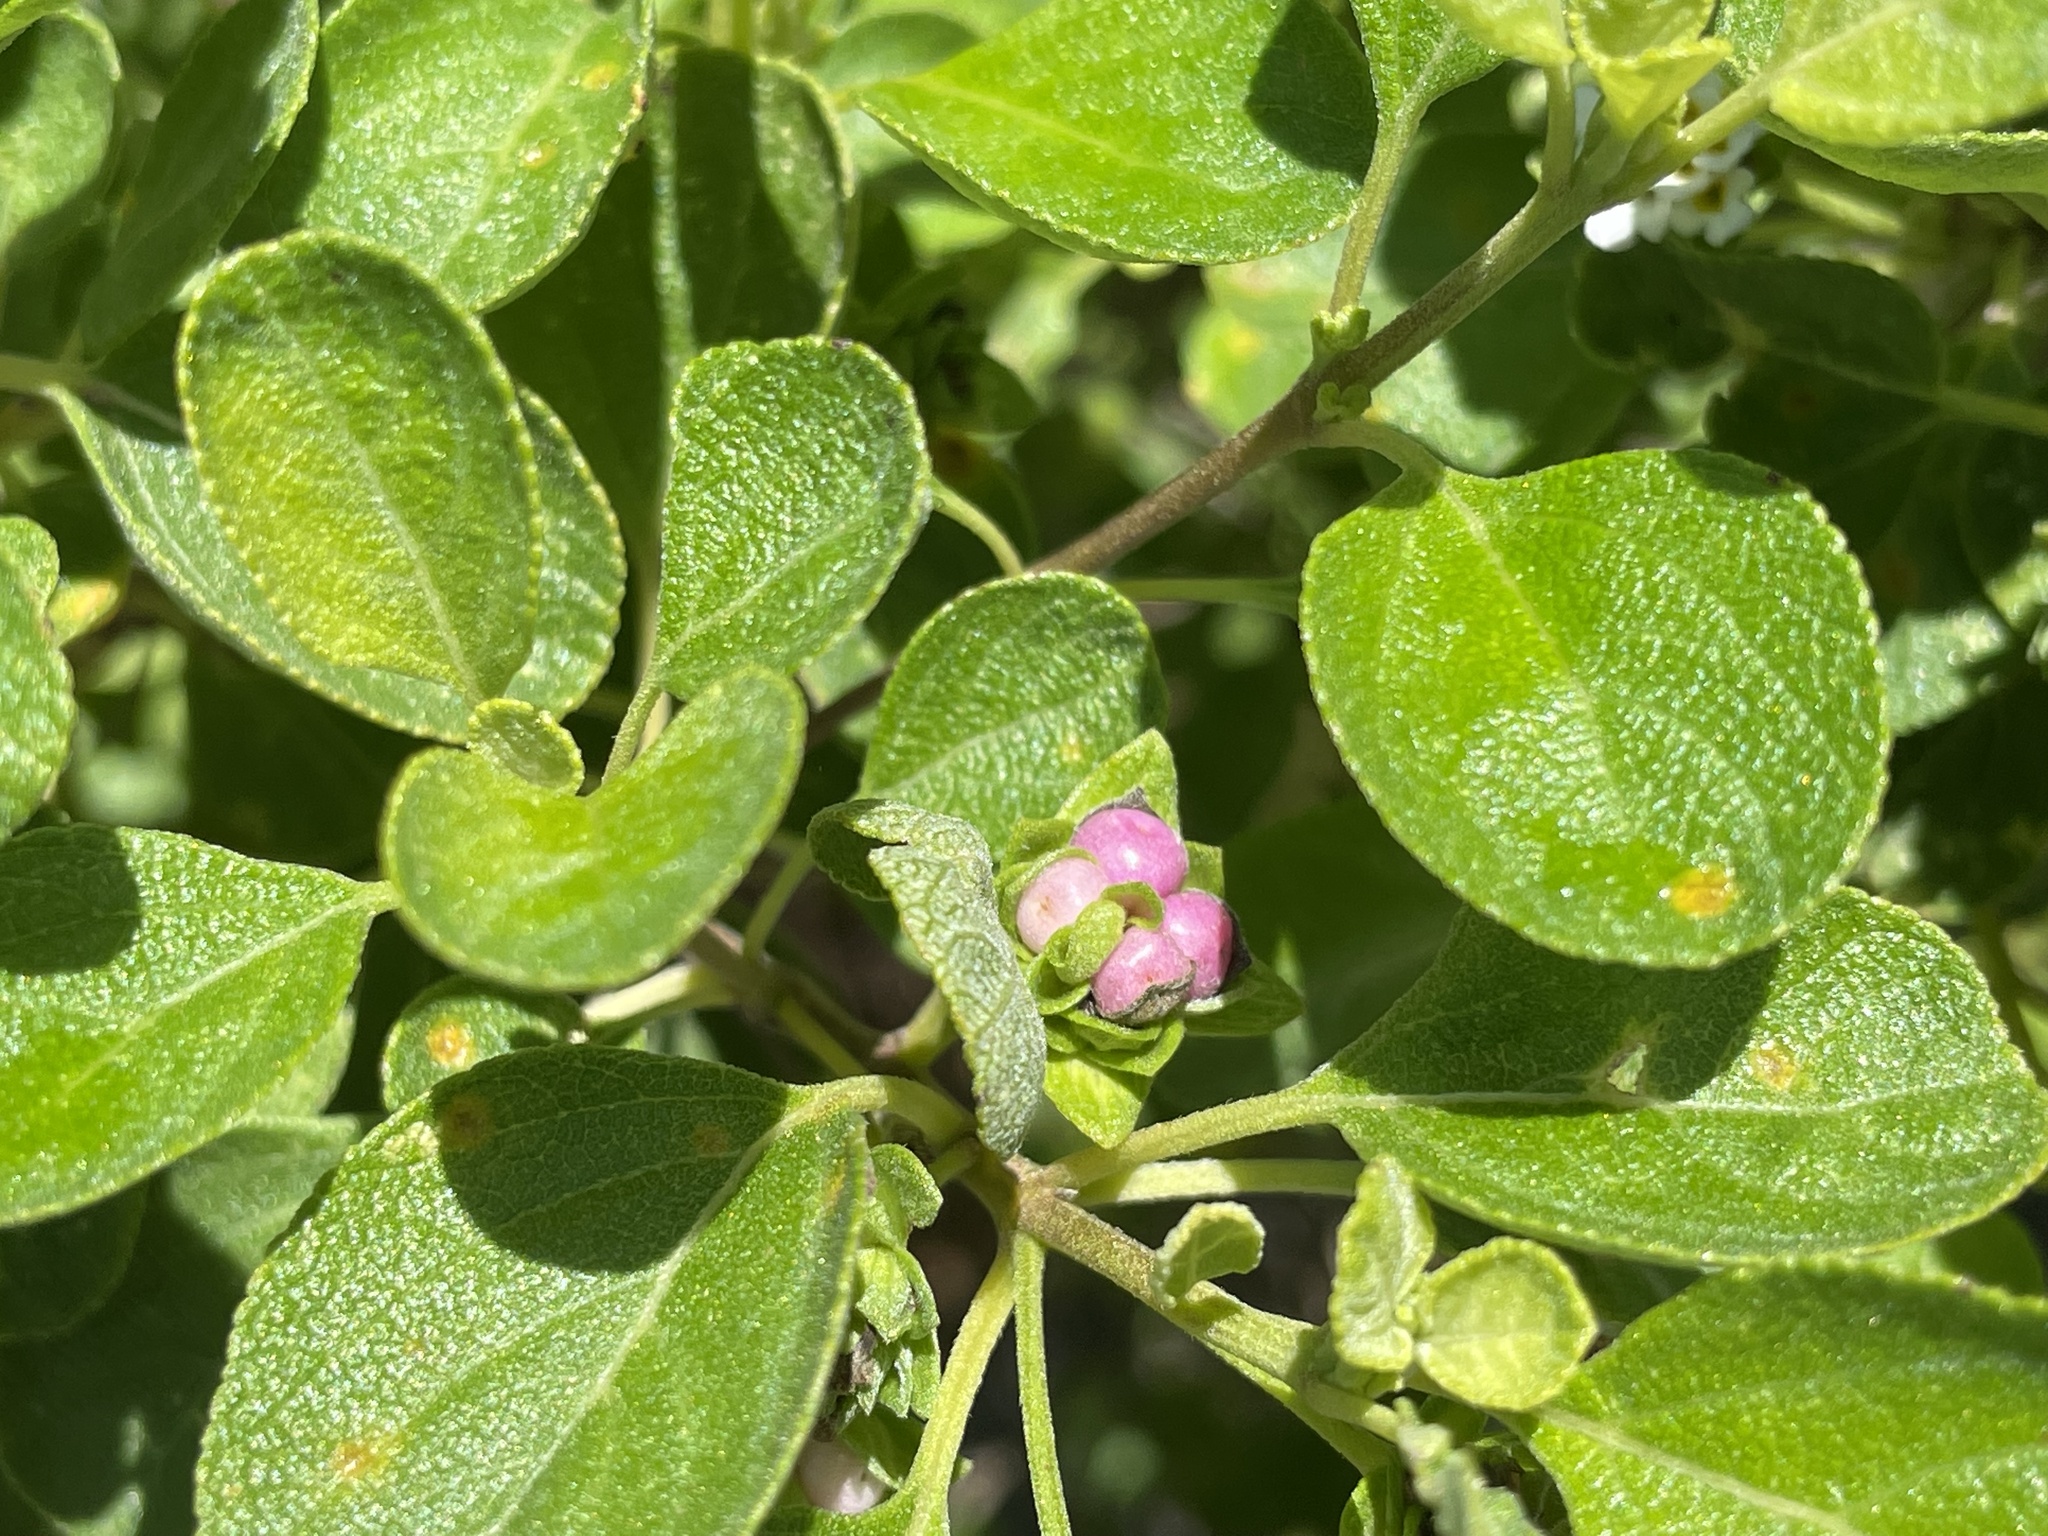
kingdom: Plantae
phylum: Tracheophyta
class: Magnoliopsida
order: Lamiales
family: Verbenaceae
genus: Lantana
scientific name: Lantana involucrata
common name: Black sage
